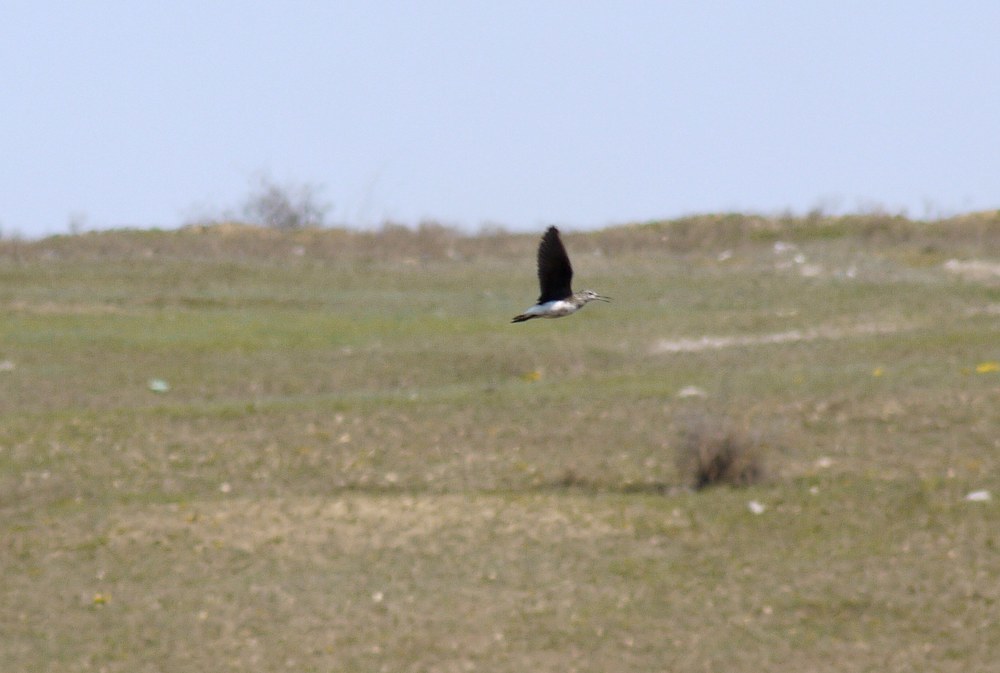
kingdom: Animalia
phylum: Chordata
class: Aves
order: Charadriiformes
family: Scolopacidae
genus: Tringa
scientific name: Tringa ochropus
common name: Green sandpiper
